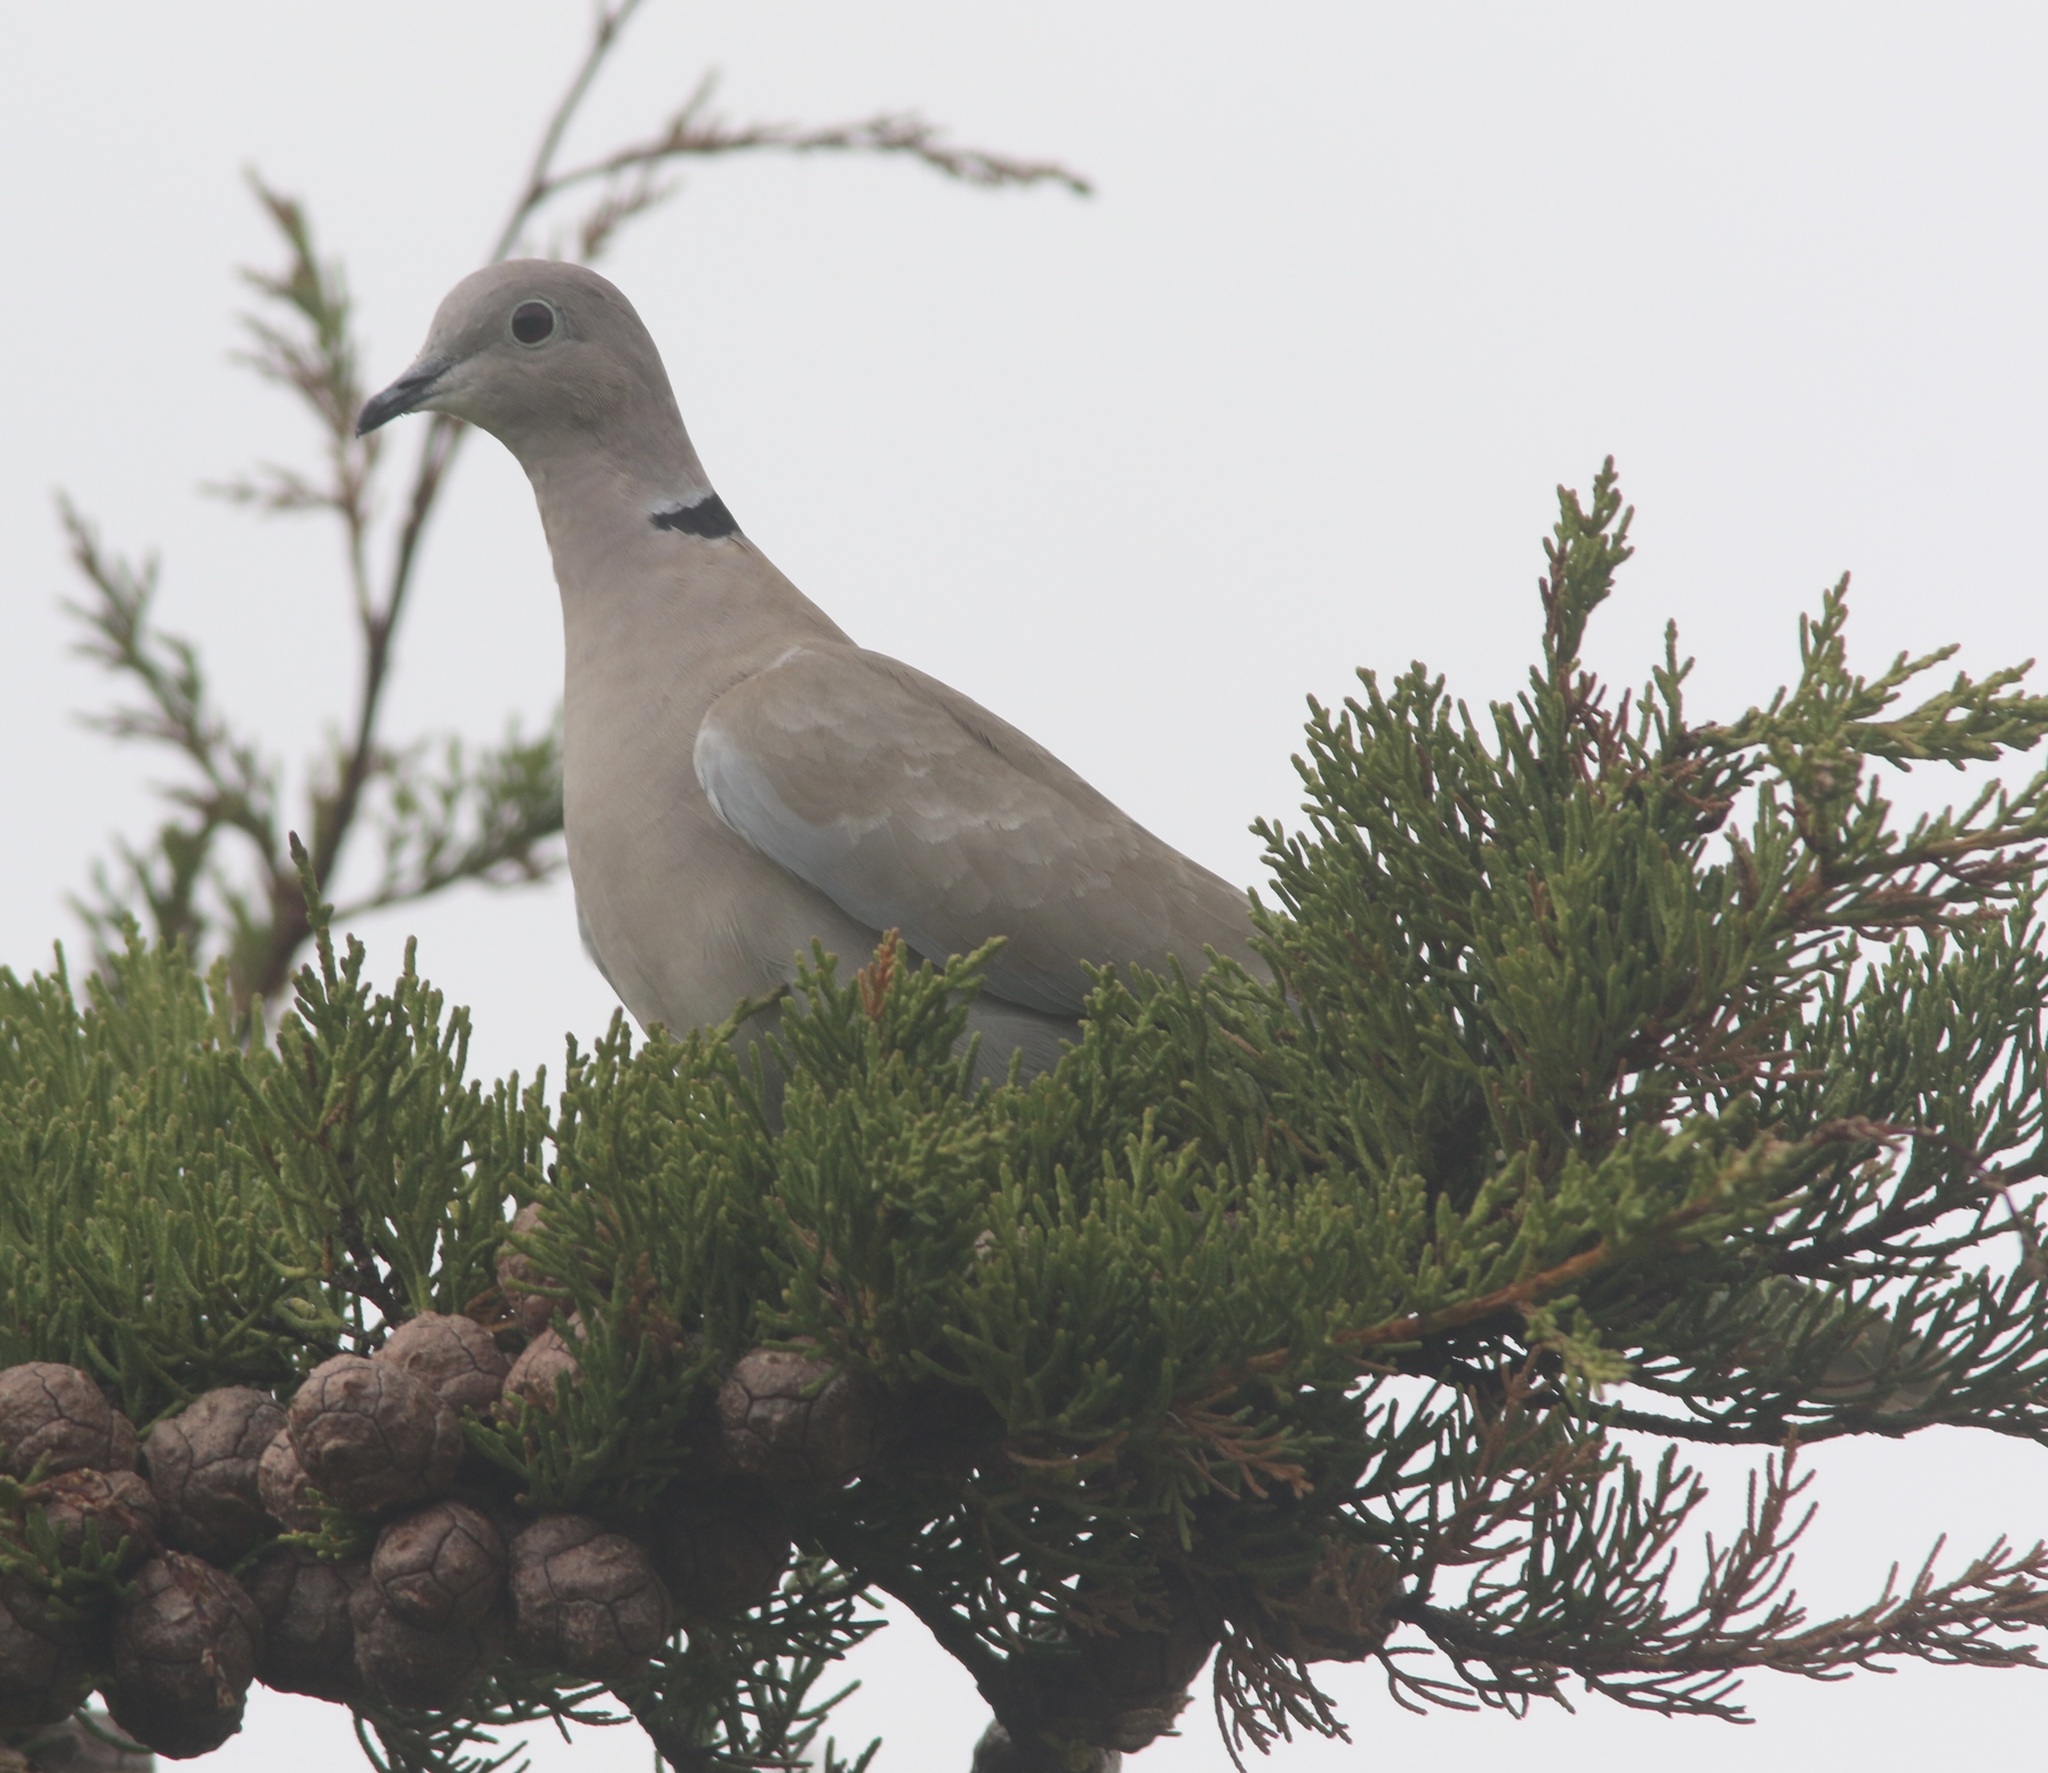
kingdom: Animalia
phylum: Chordata
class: Aves
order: Columbiformes
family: Columbidae
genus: Streptopelia
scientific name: Streptopelia decaocto
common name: Eurasian collared dove
